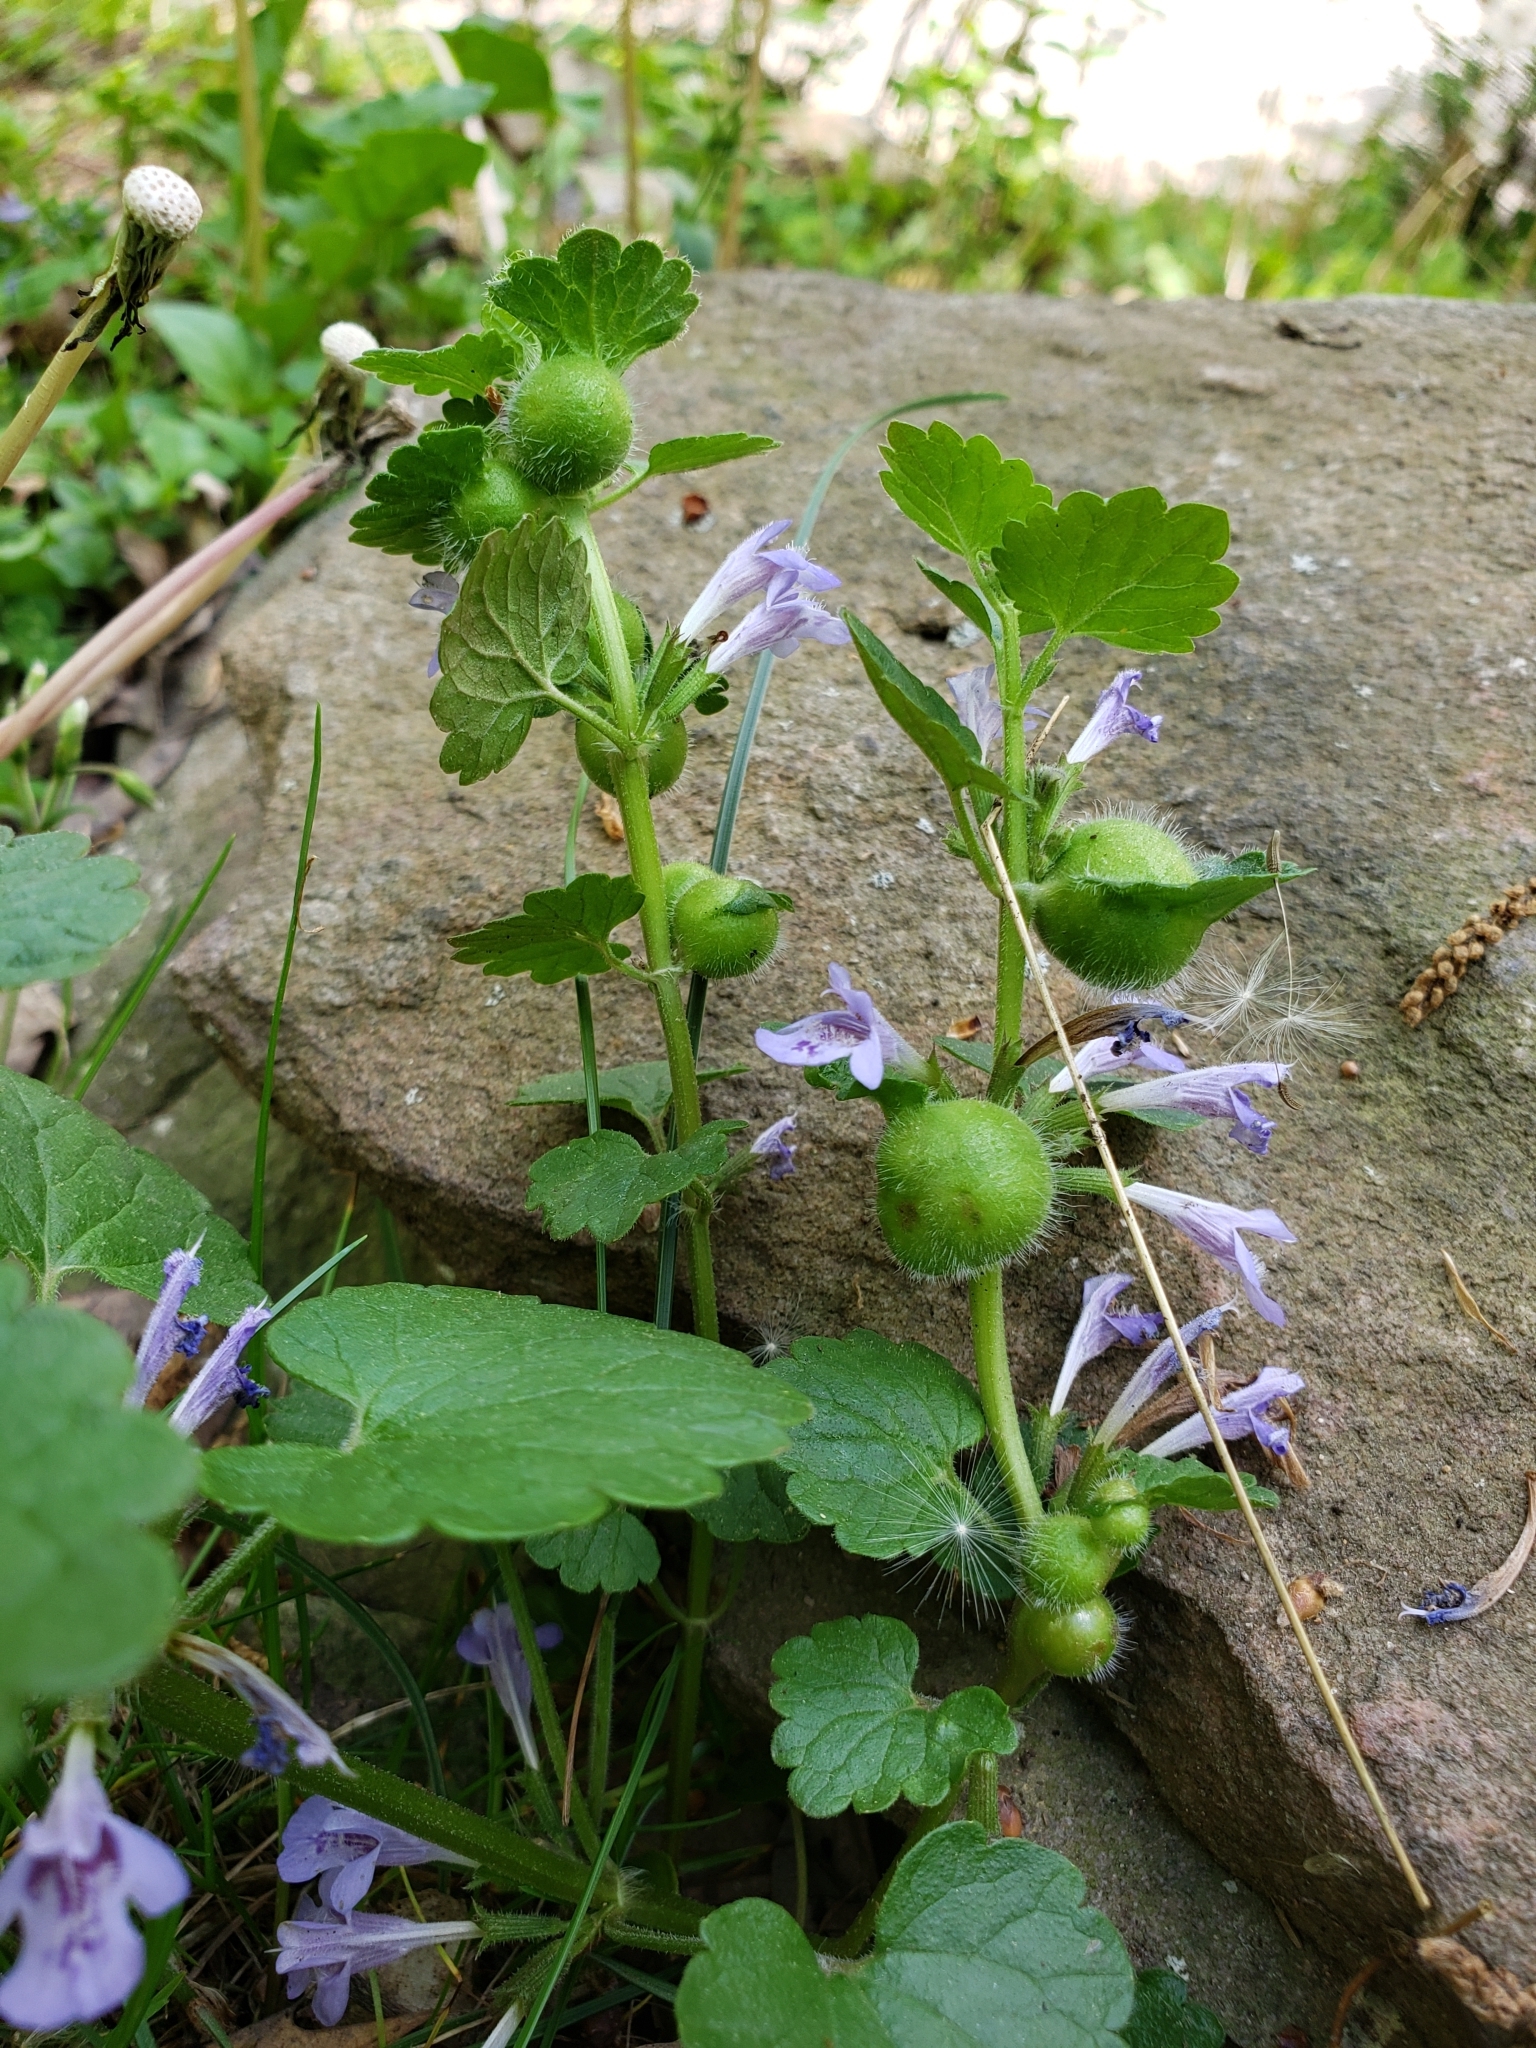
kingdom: Animalia
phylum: Arthropoda
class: Insecta
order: Hymenoptera
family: Cynipidae
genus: Liposthenes
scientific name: Liposthenes glechomae
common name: Gall wasp
